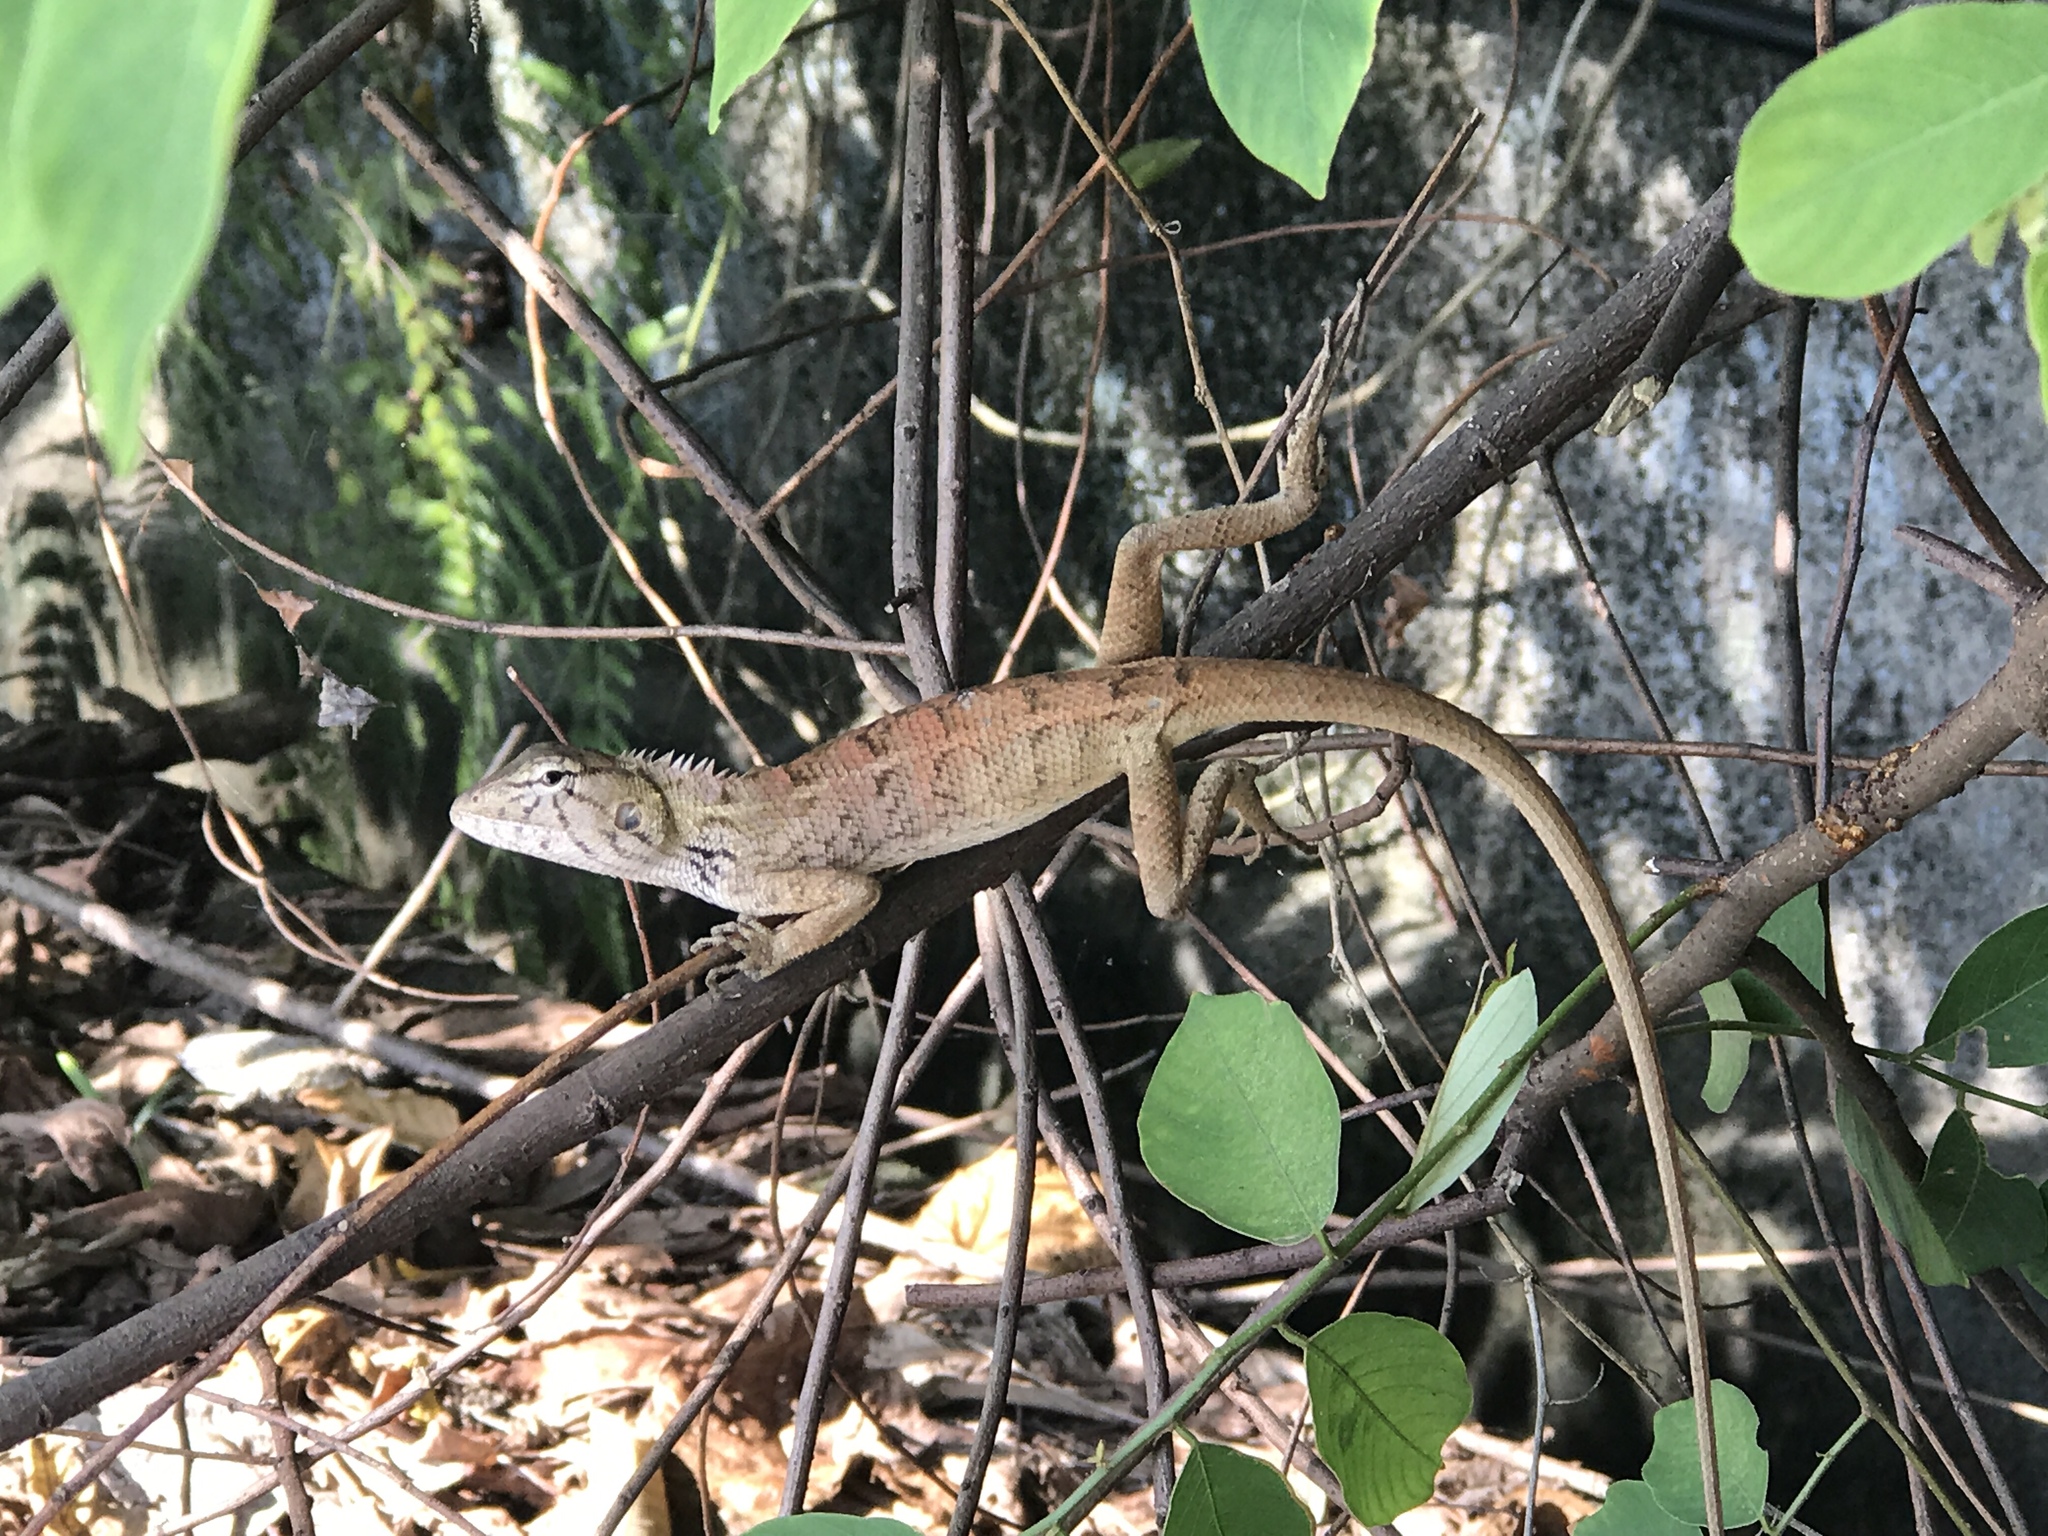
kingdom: Animalia
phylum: Chordata
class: Squamata
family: Agamidae
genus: Calotes
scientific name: Calotes versicolor
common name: Oriental garden lizard
